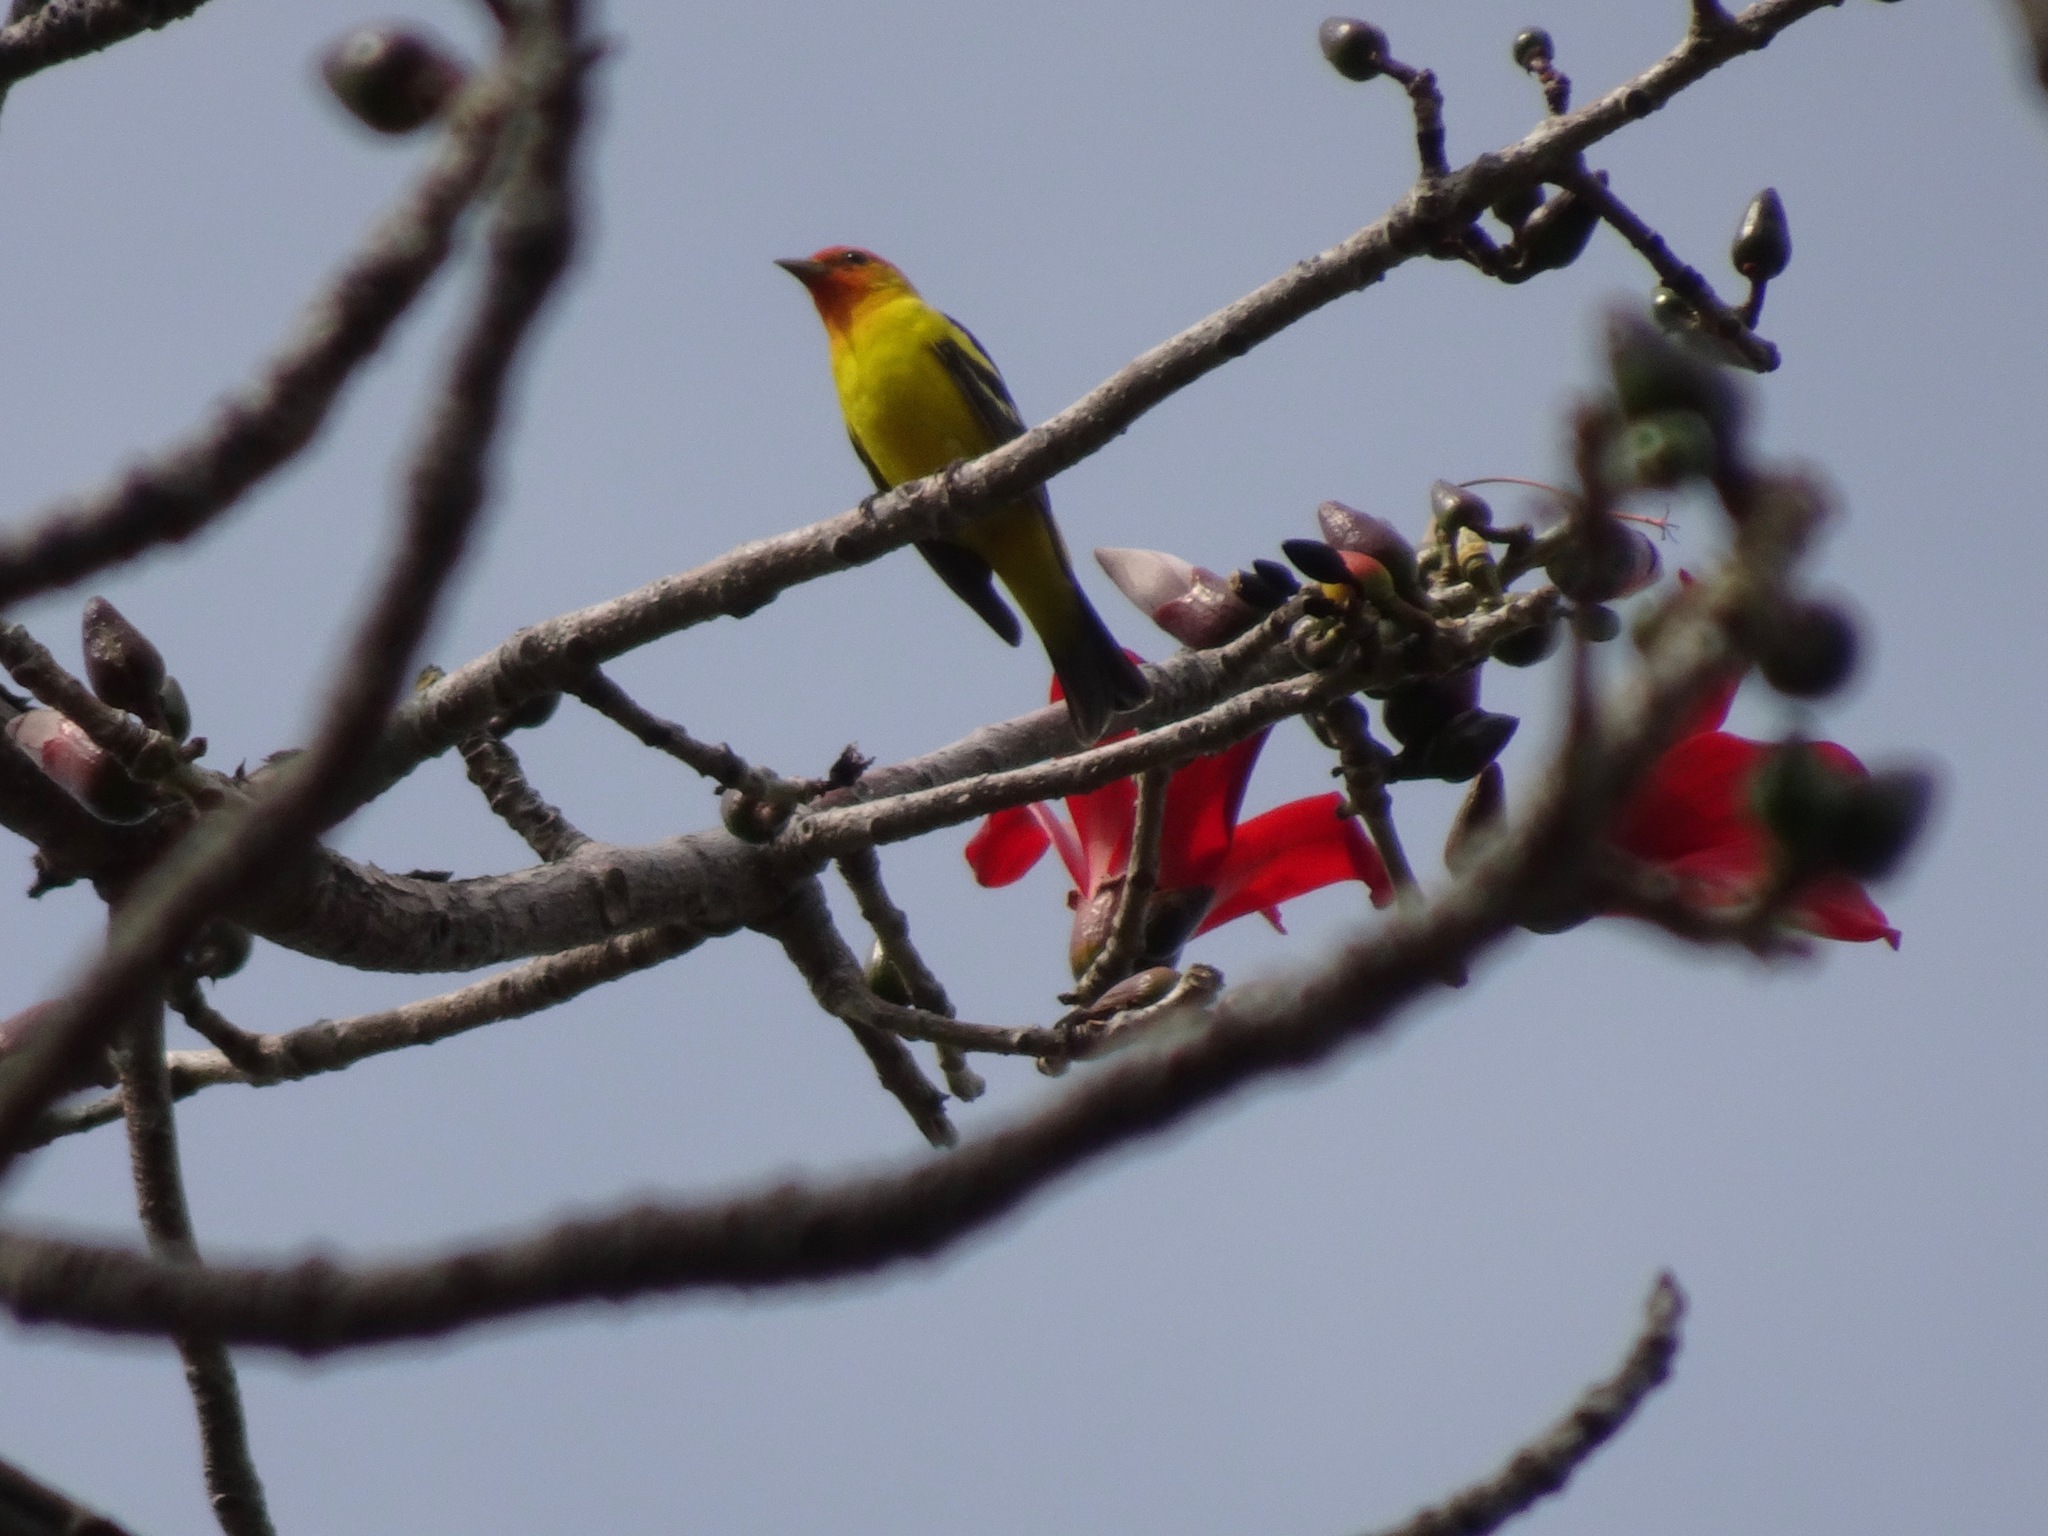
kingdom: Animalia
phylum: Chordata
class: Aves
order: Passeriformes
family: Cardinalidae
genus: Piranga
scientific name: Piranga ludoviciana
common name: Western tanager
